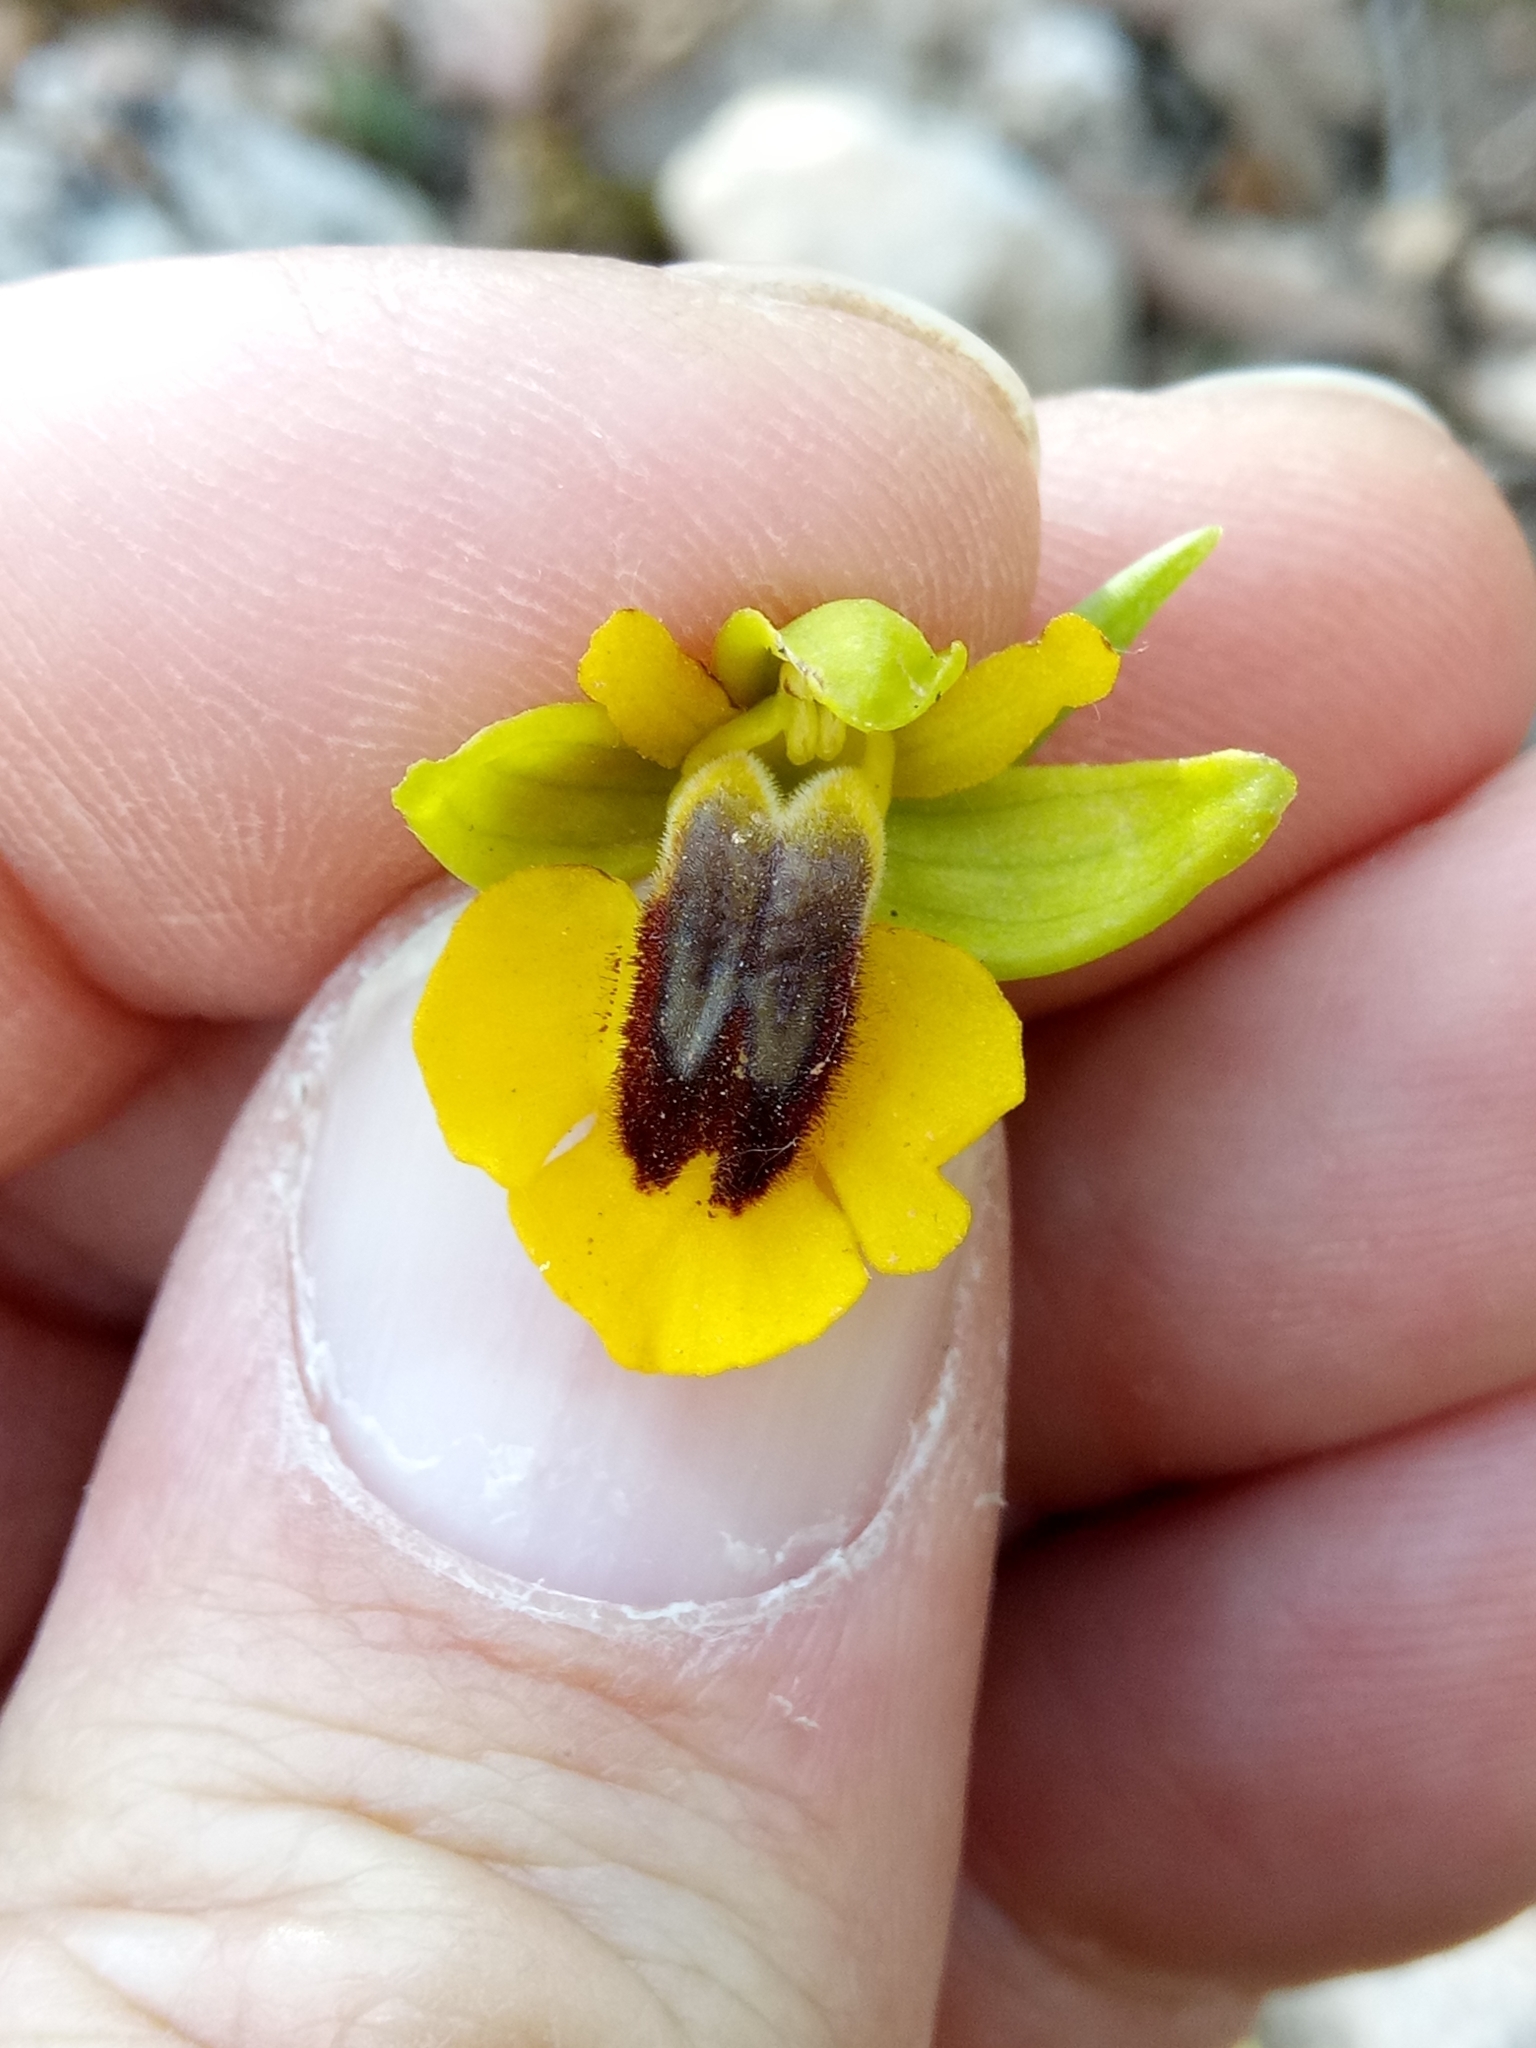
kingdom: Plantae
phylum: Tracheophyta
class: Liliopsida
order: Asparagales
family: Orchidaceae
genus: Ophrys
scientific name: Ophrys lutea
